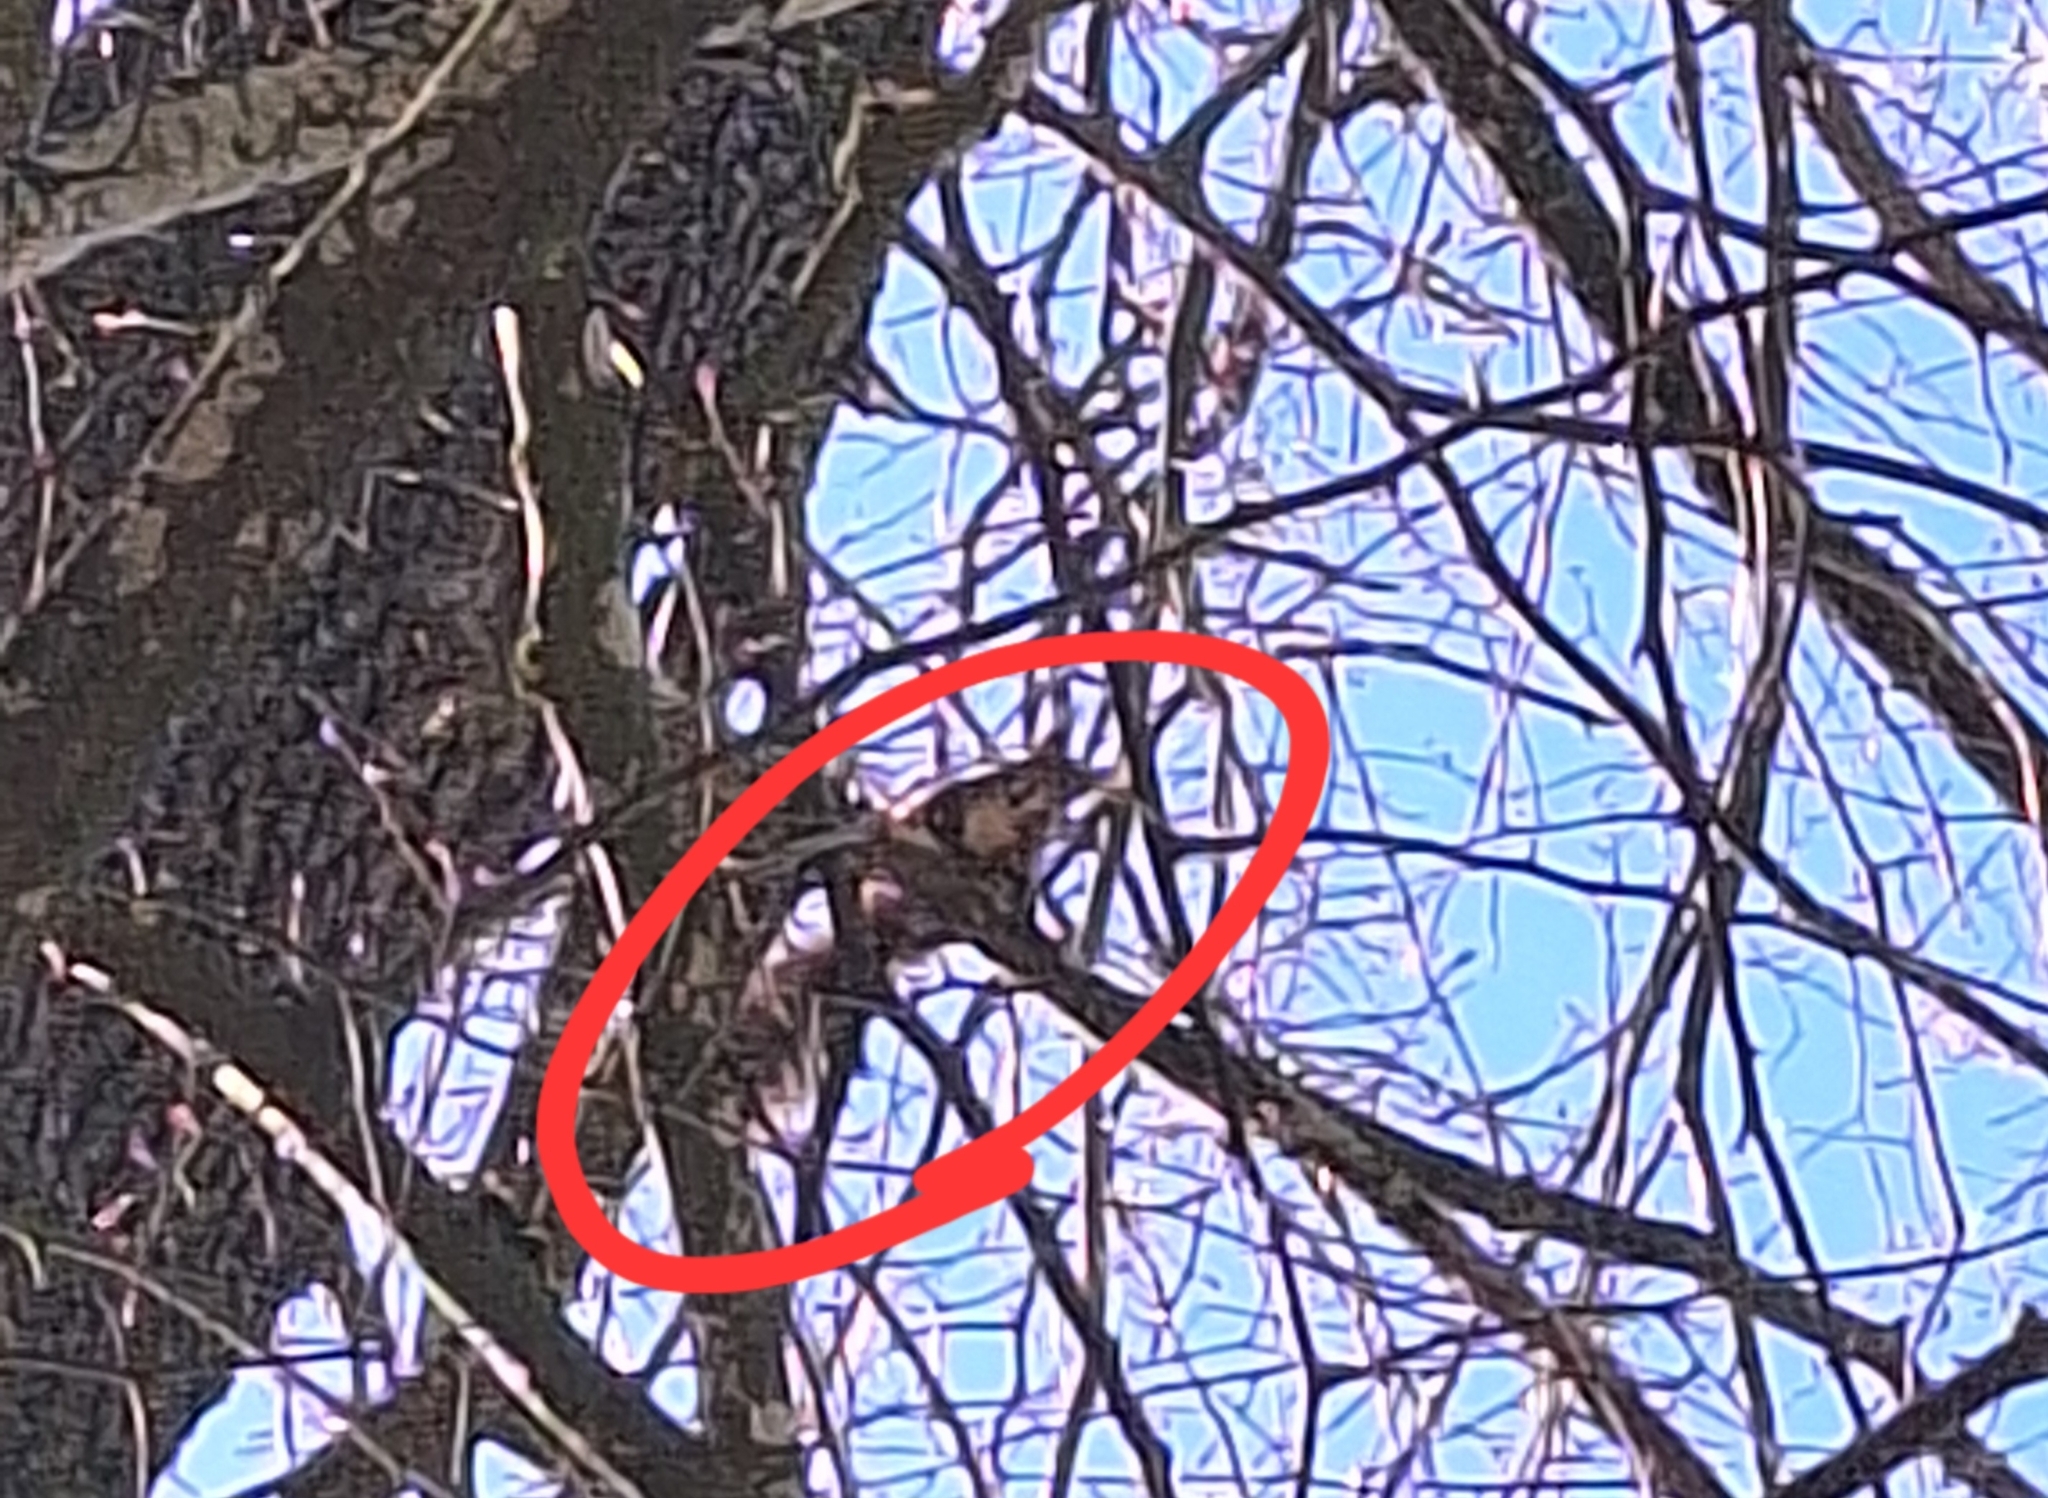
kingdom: Animalia
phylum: Chordata
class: Mammalia
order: Rodentia
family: Sciuridae
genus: Sciurus
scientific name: Sciurus vulgaris
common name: Eurasian red squirrel
